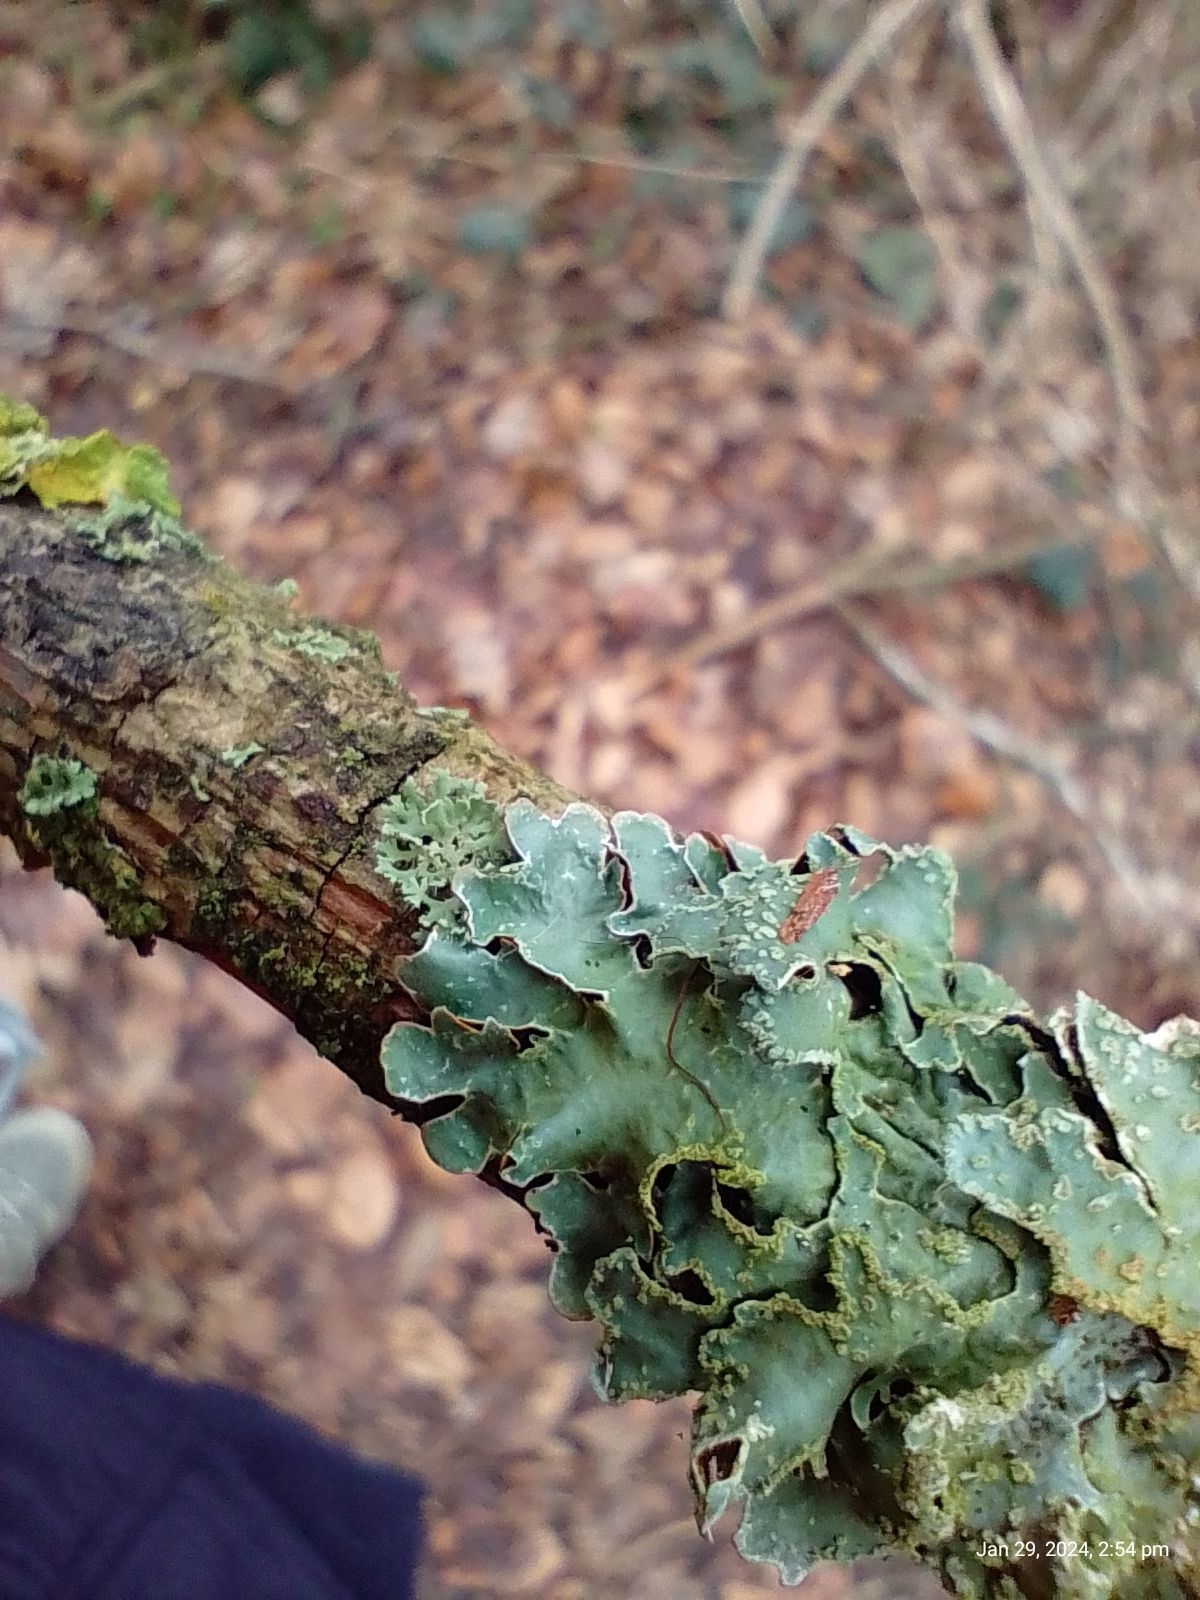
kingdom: Fungi
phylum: Ascomycota
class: Lecanoromycetes
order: Lecanorales
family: Parmeliaceae
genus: Parmelia
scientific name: Parmelia sulcata
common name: Netted shield lichen
